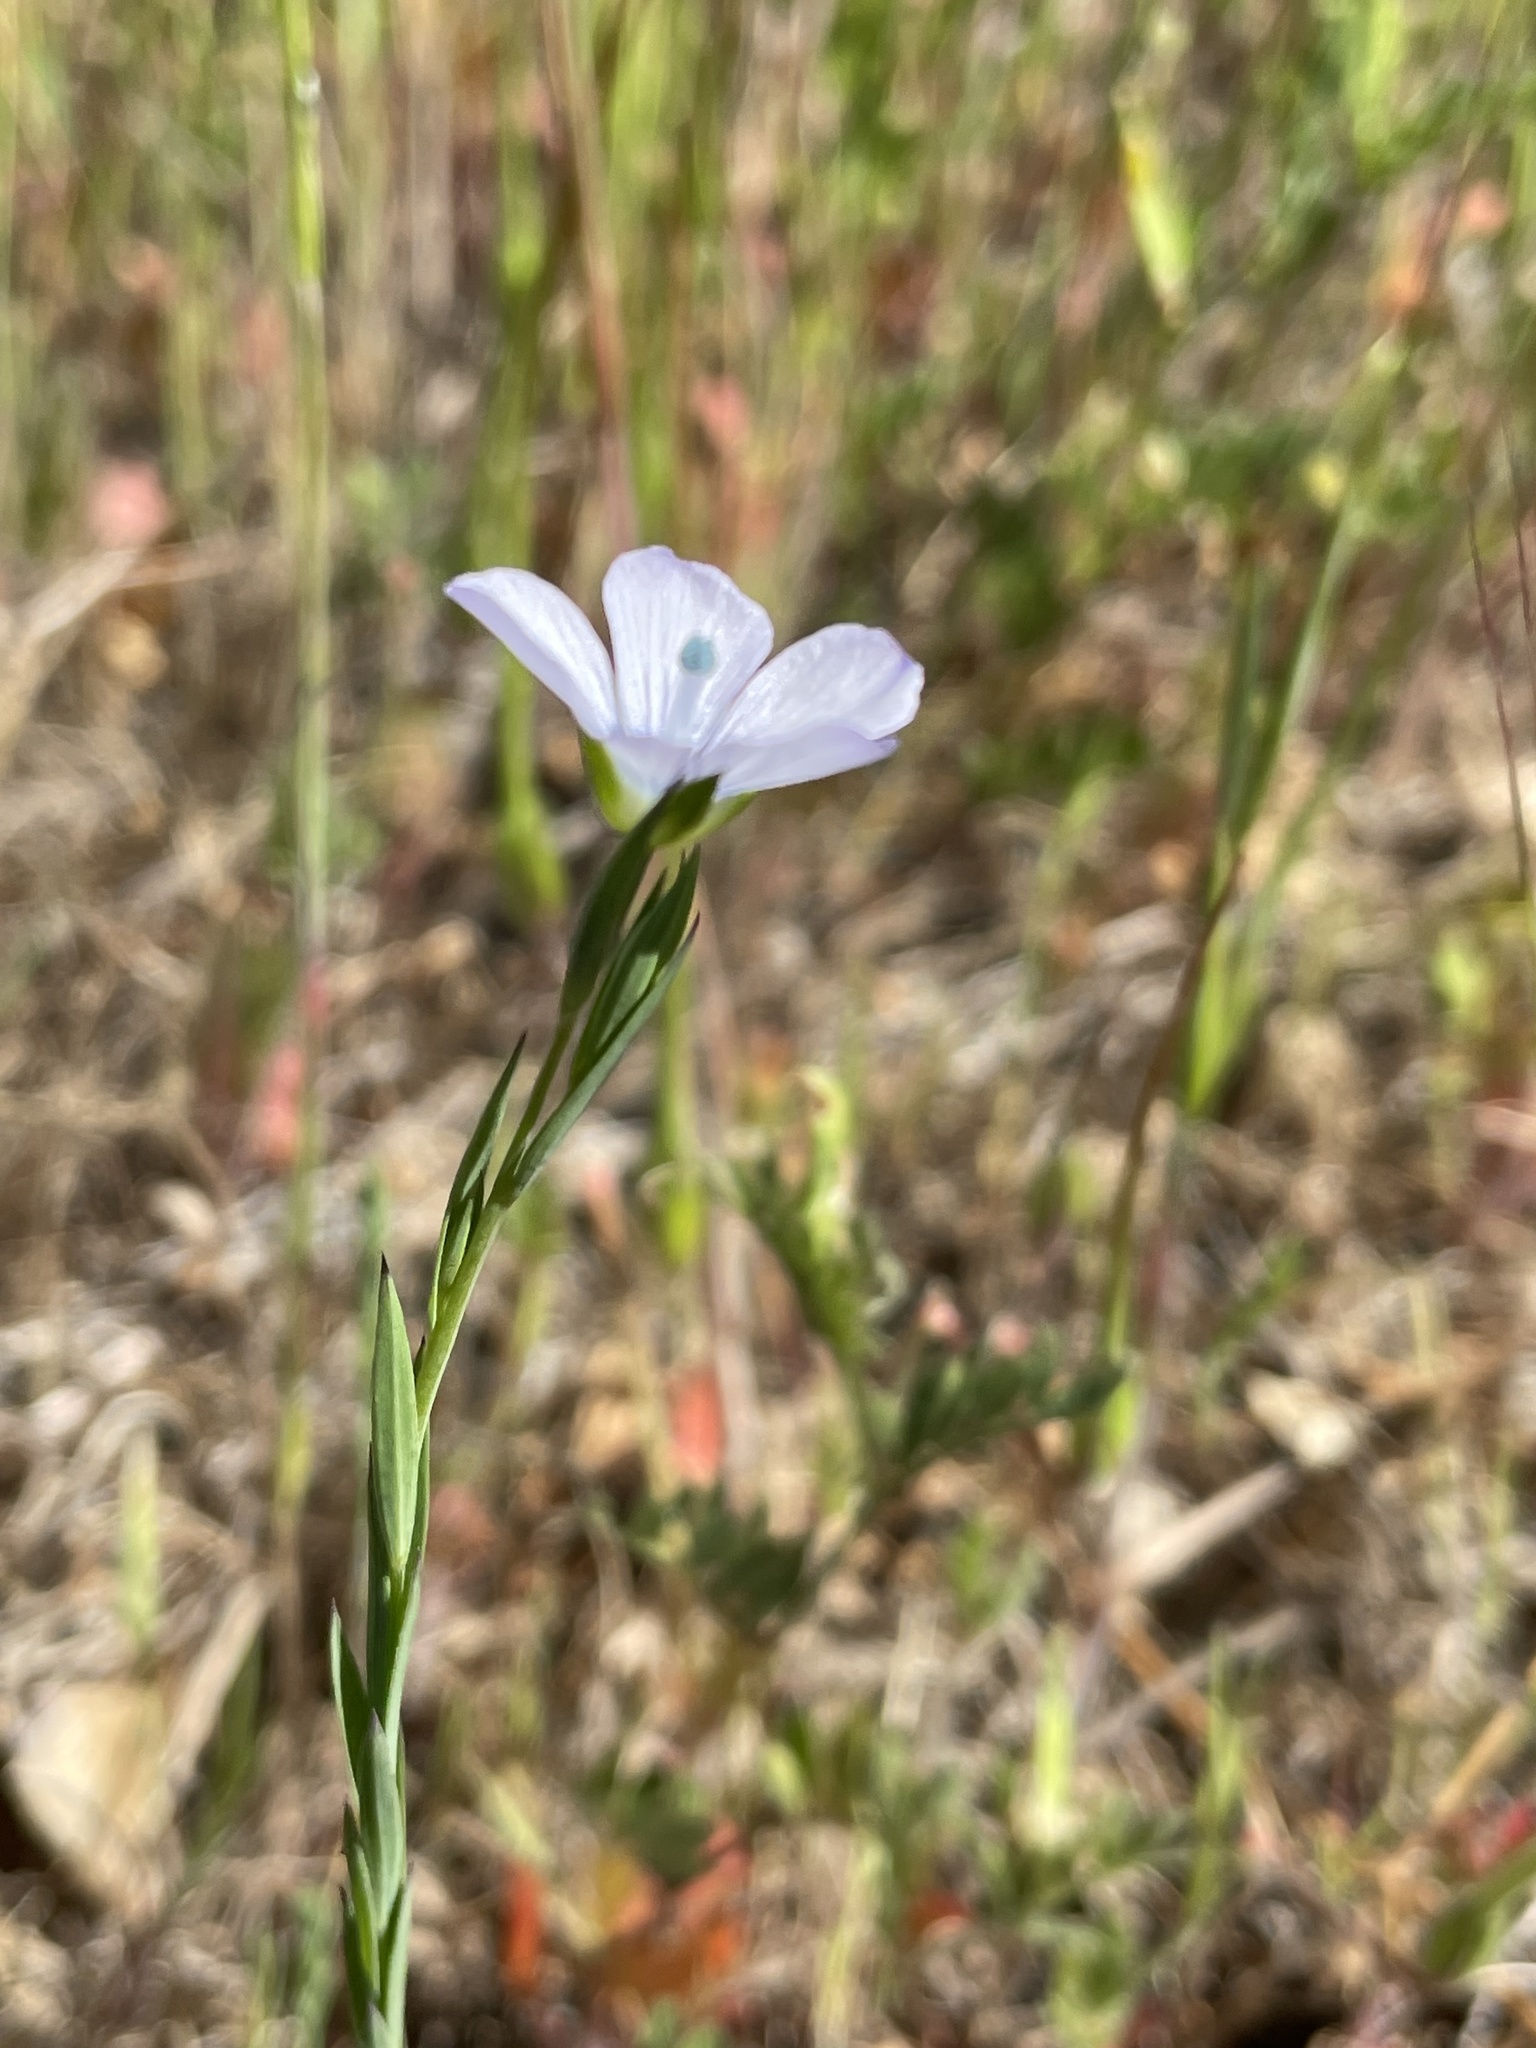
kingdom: Plantae
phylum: Tracheophyta
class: Magnoliopsida
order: Malpighiales
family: Linaceae
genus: Linum
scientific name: Linum bienne
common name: Pale flax
